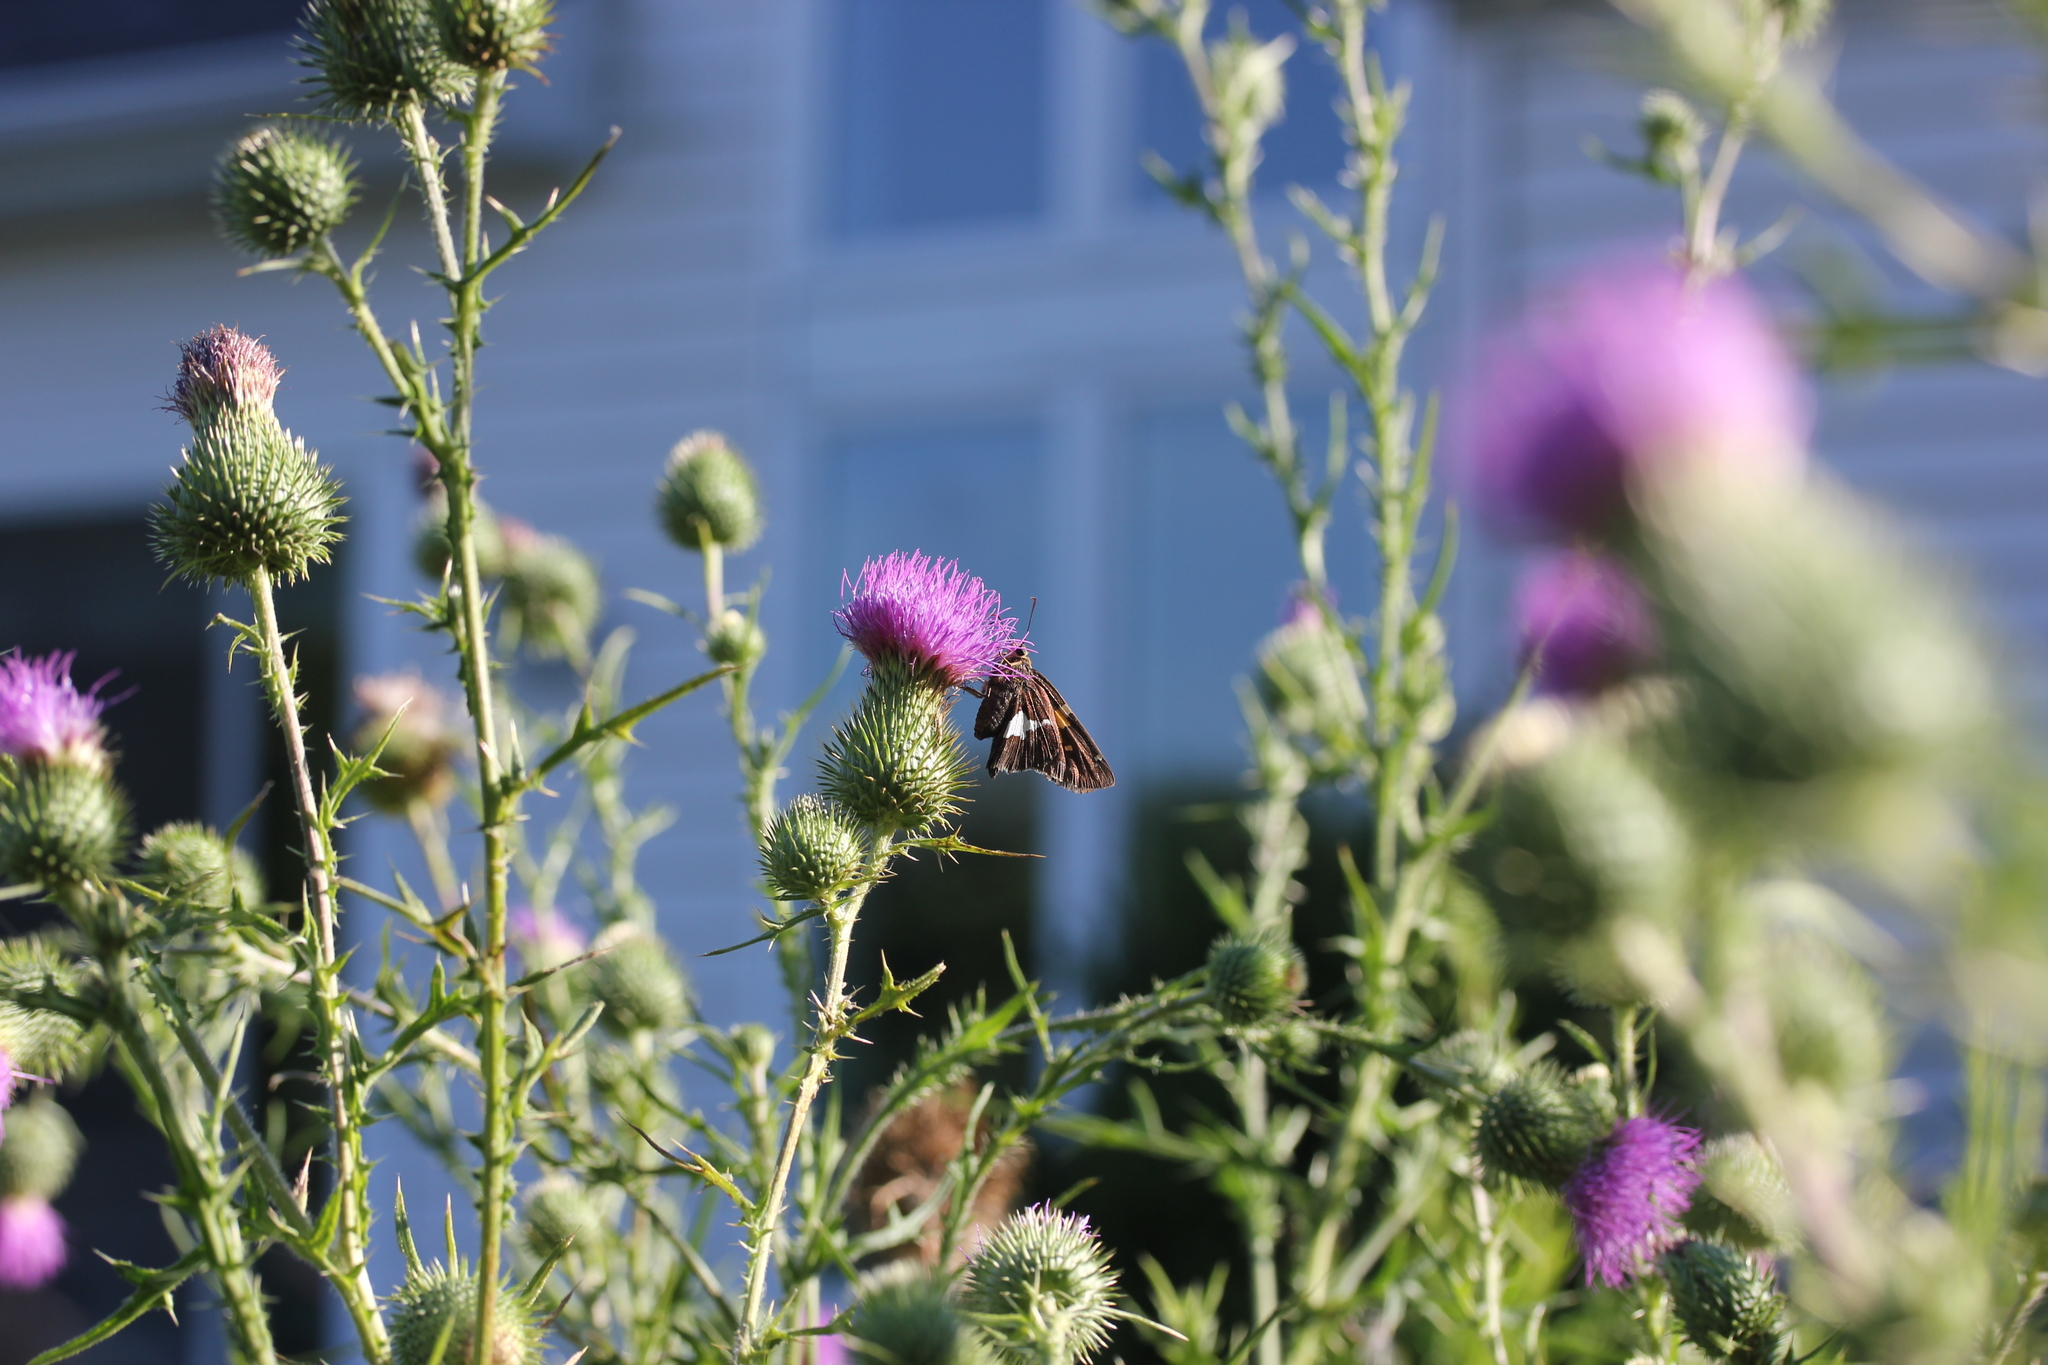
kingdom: Plantae
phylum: Tracheophyta
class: Magnoliopsida
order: Asterales
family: Asteraceae
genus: Cirsium
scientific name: Cirsium vulgare
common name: Bull thistle
